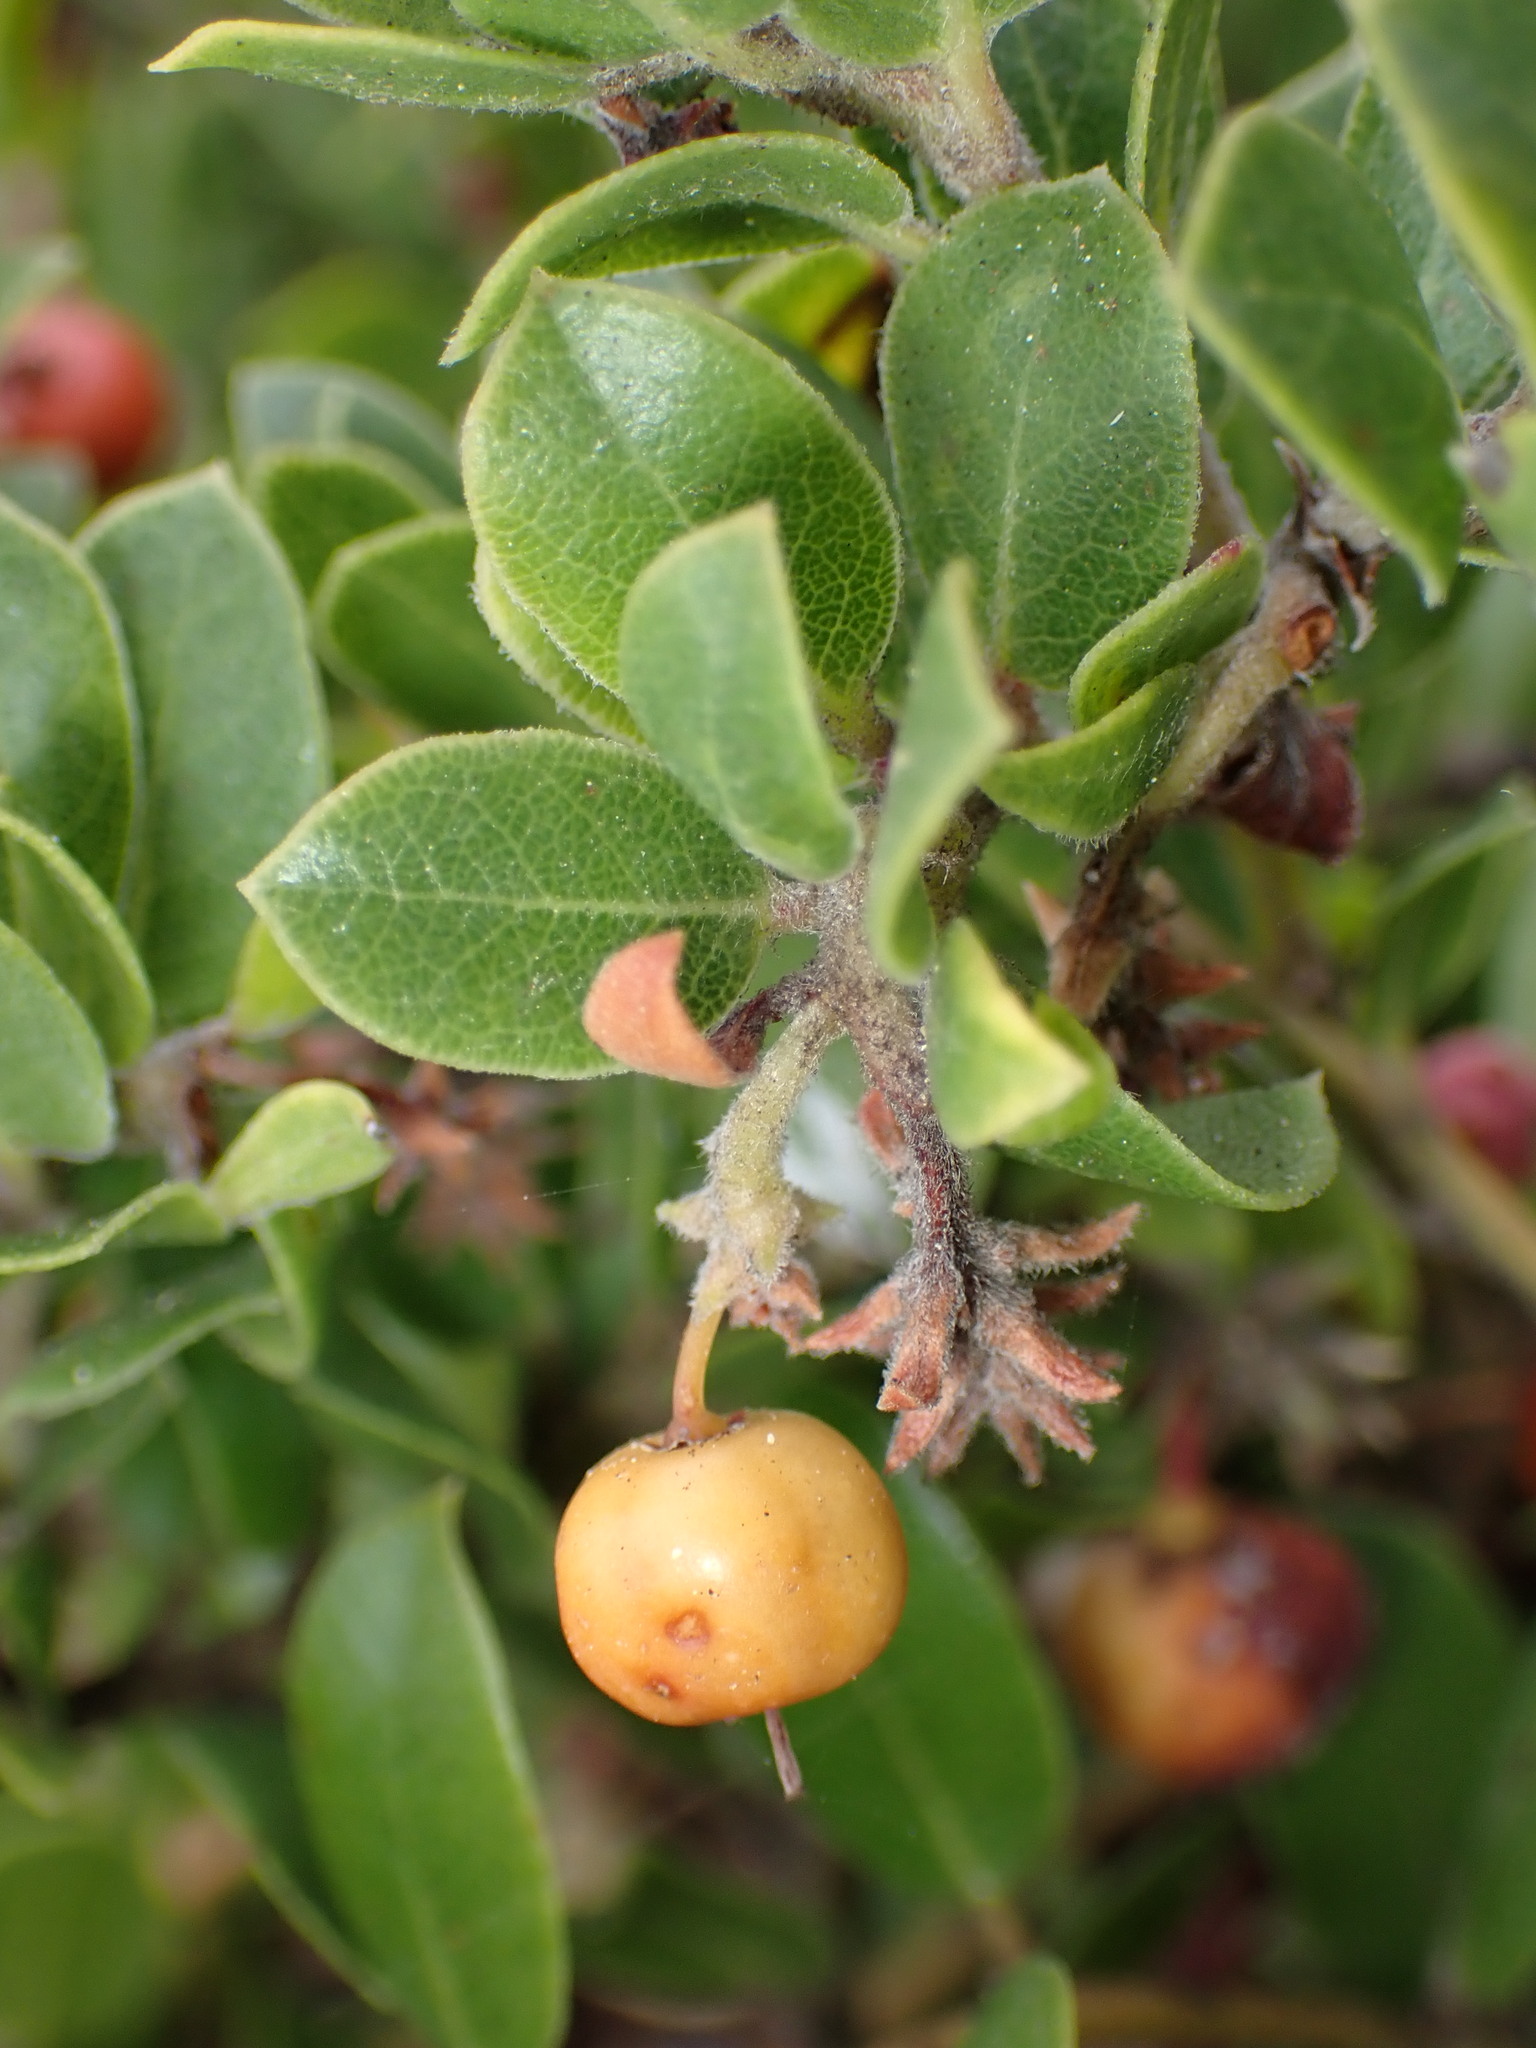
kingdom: Plantae
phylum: Tracheophyta
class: Magnoliopsida
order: Ericales
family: Ericaceae
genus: Arctostaphylos
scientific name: Arctostaphylos edmundsii
